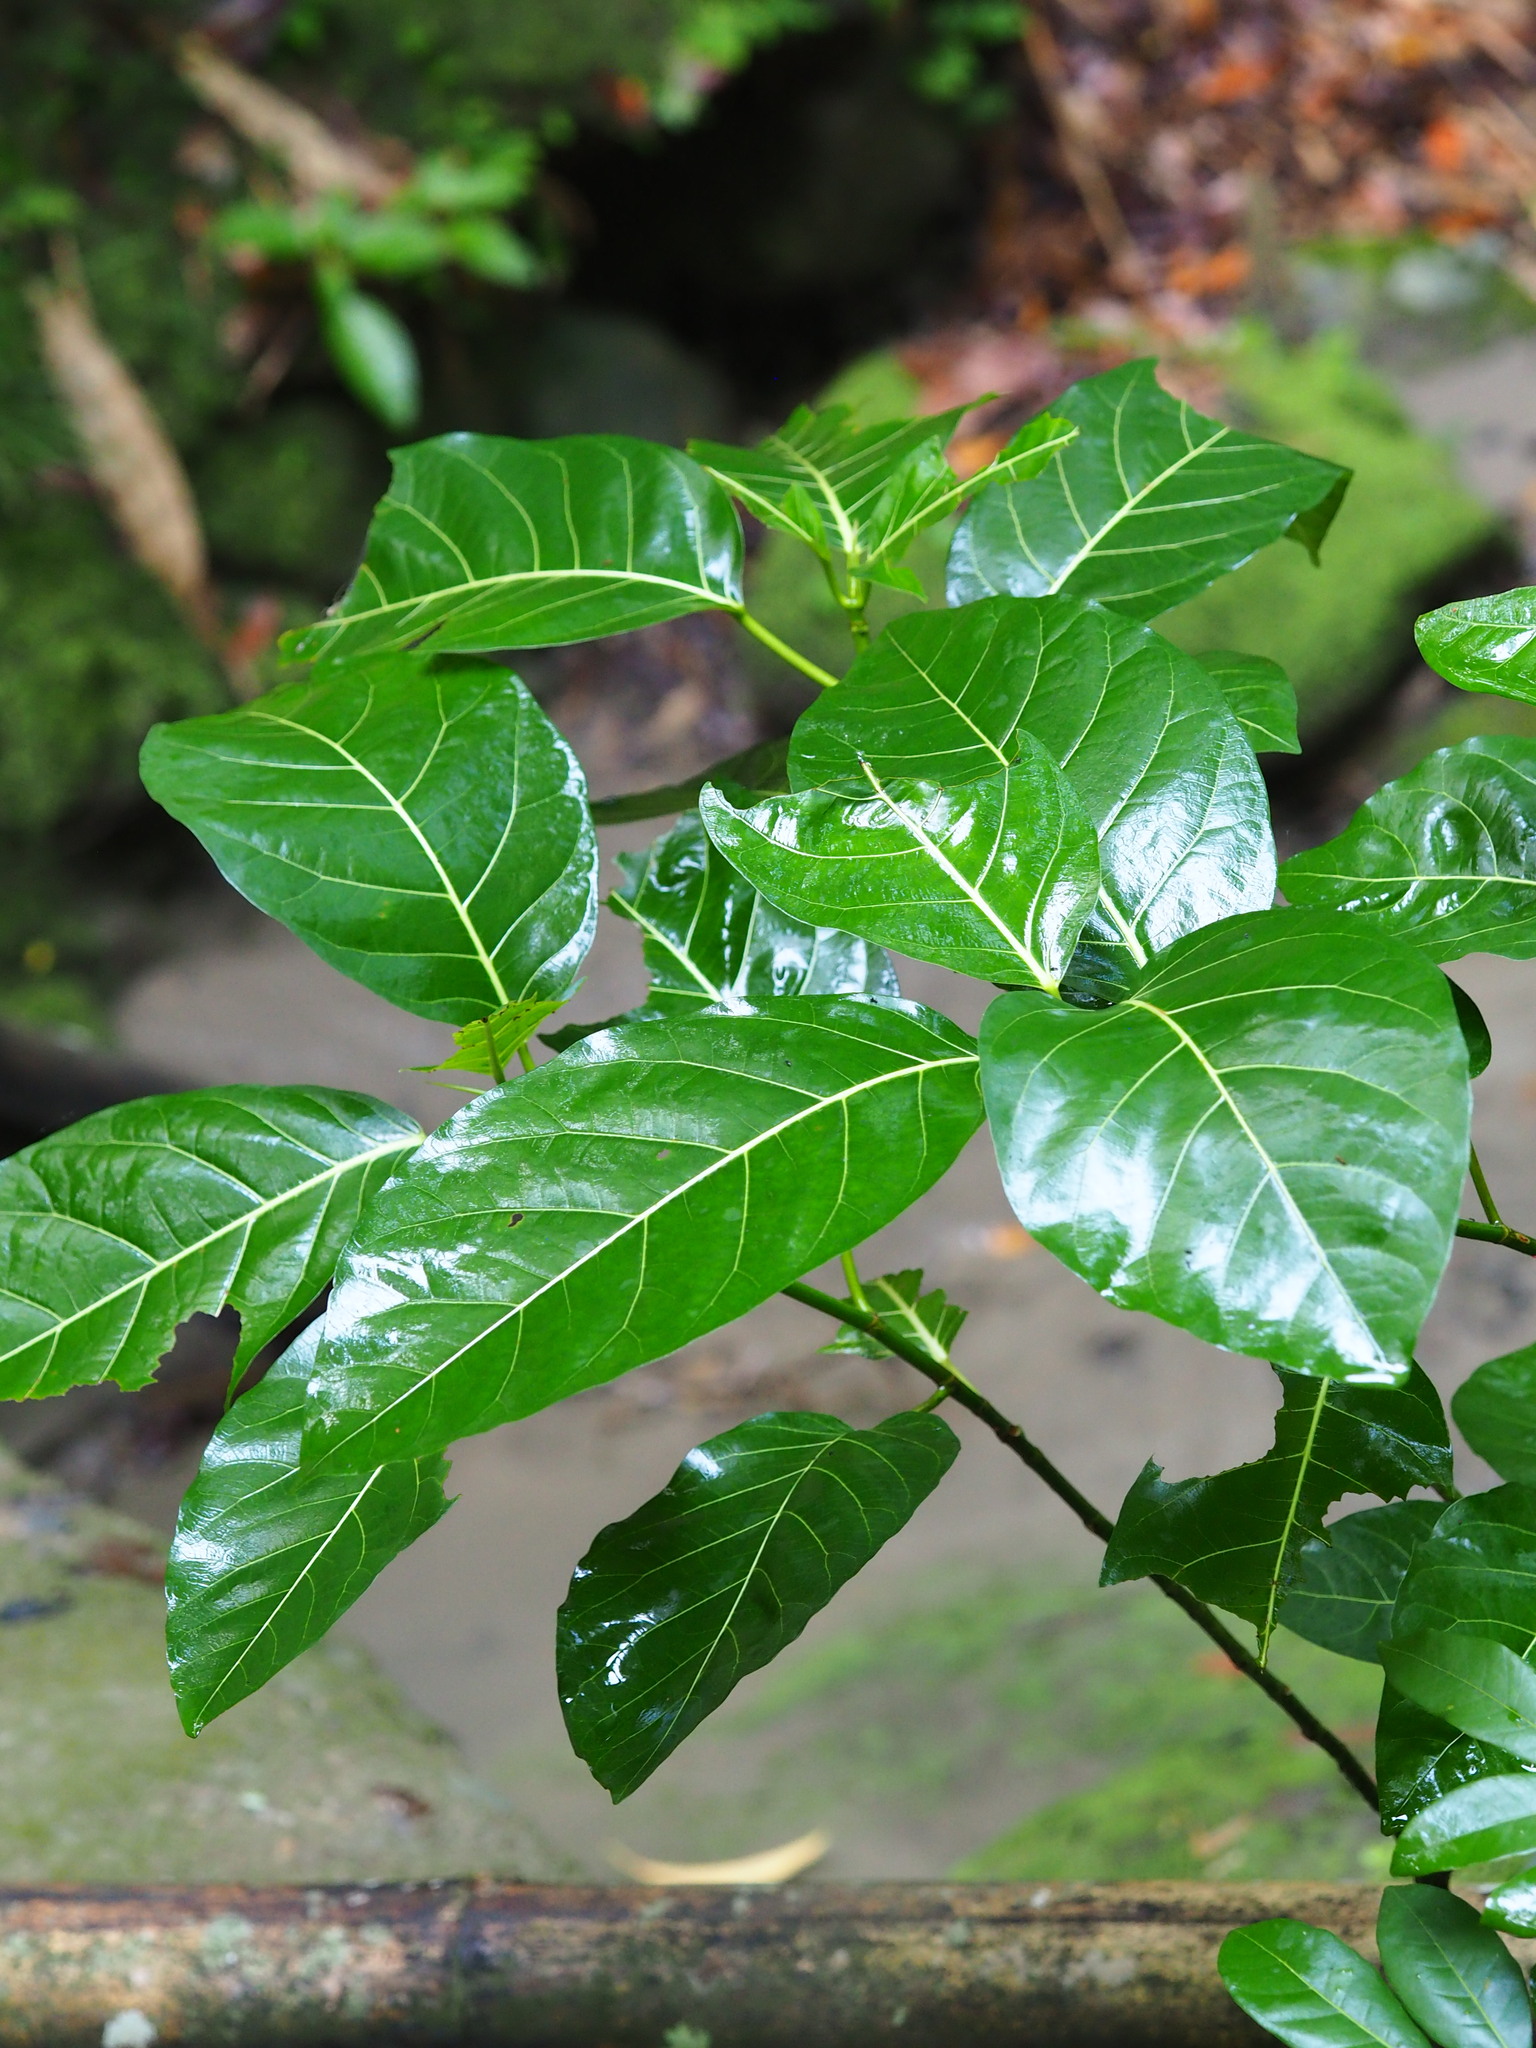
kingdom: Plantae
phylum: Tracheophyta
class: Magnoliopsida
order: Rosales
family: Moraceae
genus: Ficus
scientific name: Ficus septica
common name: Septic fig
